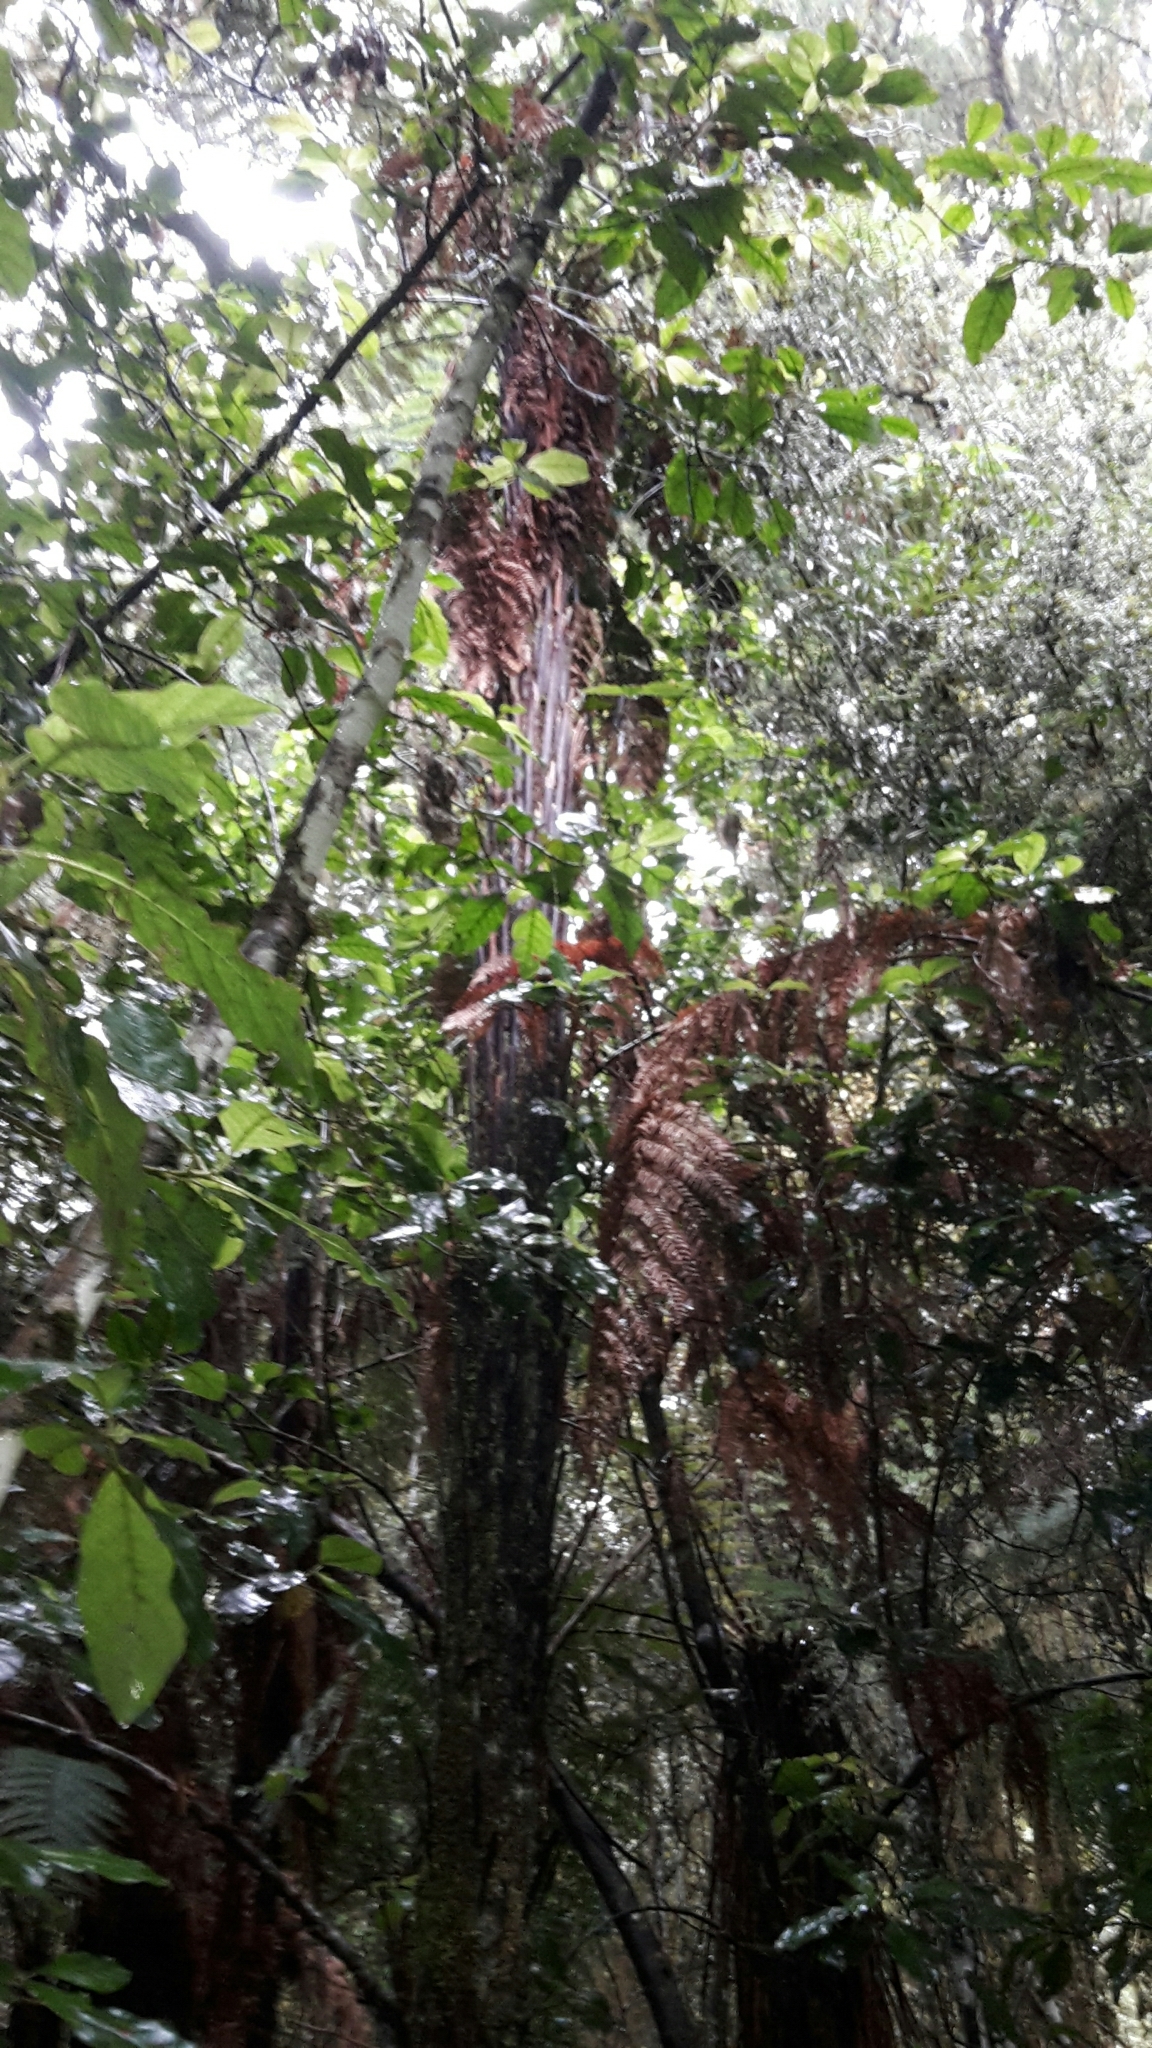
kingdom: Plantae
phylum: Tracheophyta
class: Polypodiopsida
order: Cyatheales
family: Dicksoniaceae
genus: Dicksonia
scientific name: Dicksonia squarrosa
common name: Hard treefern
